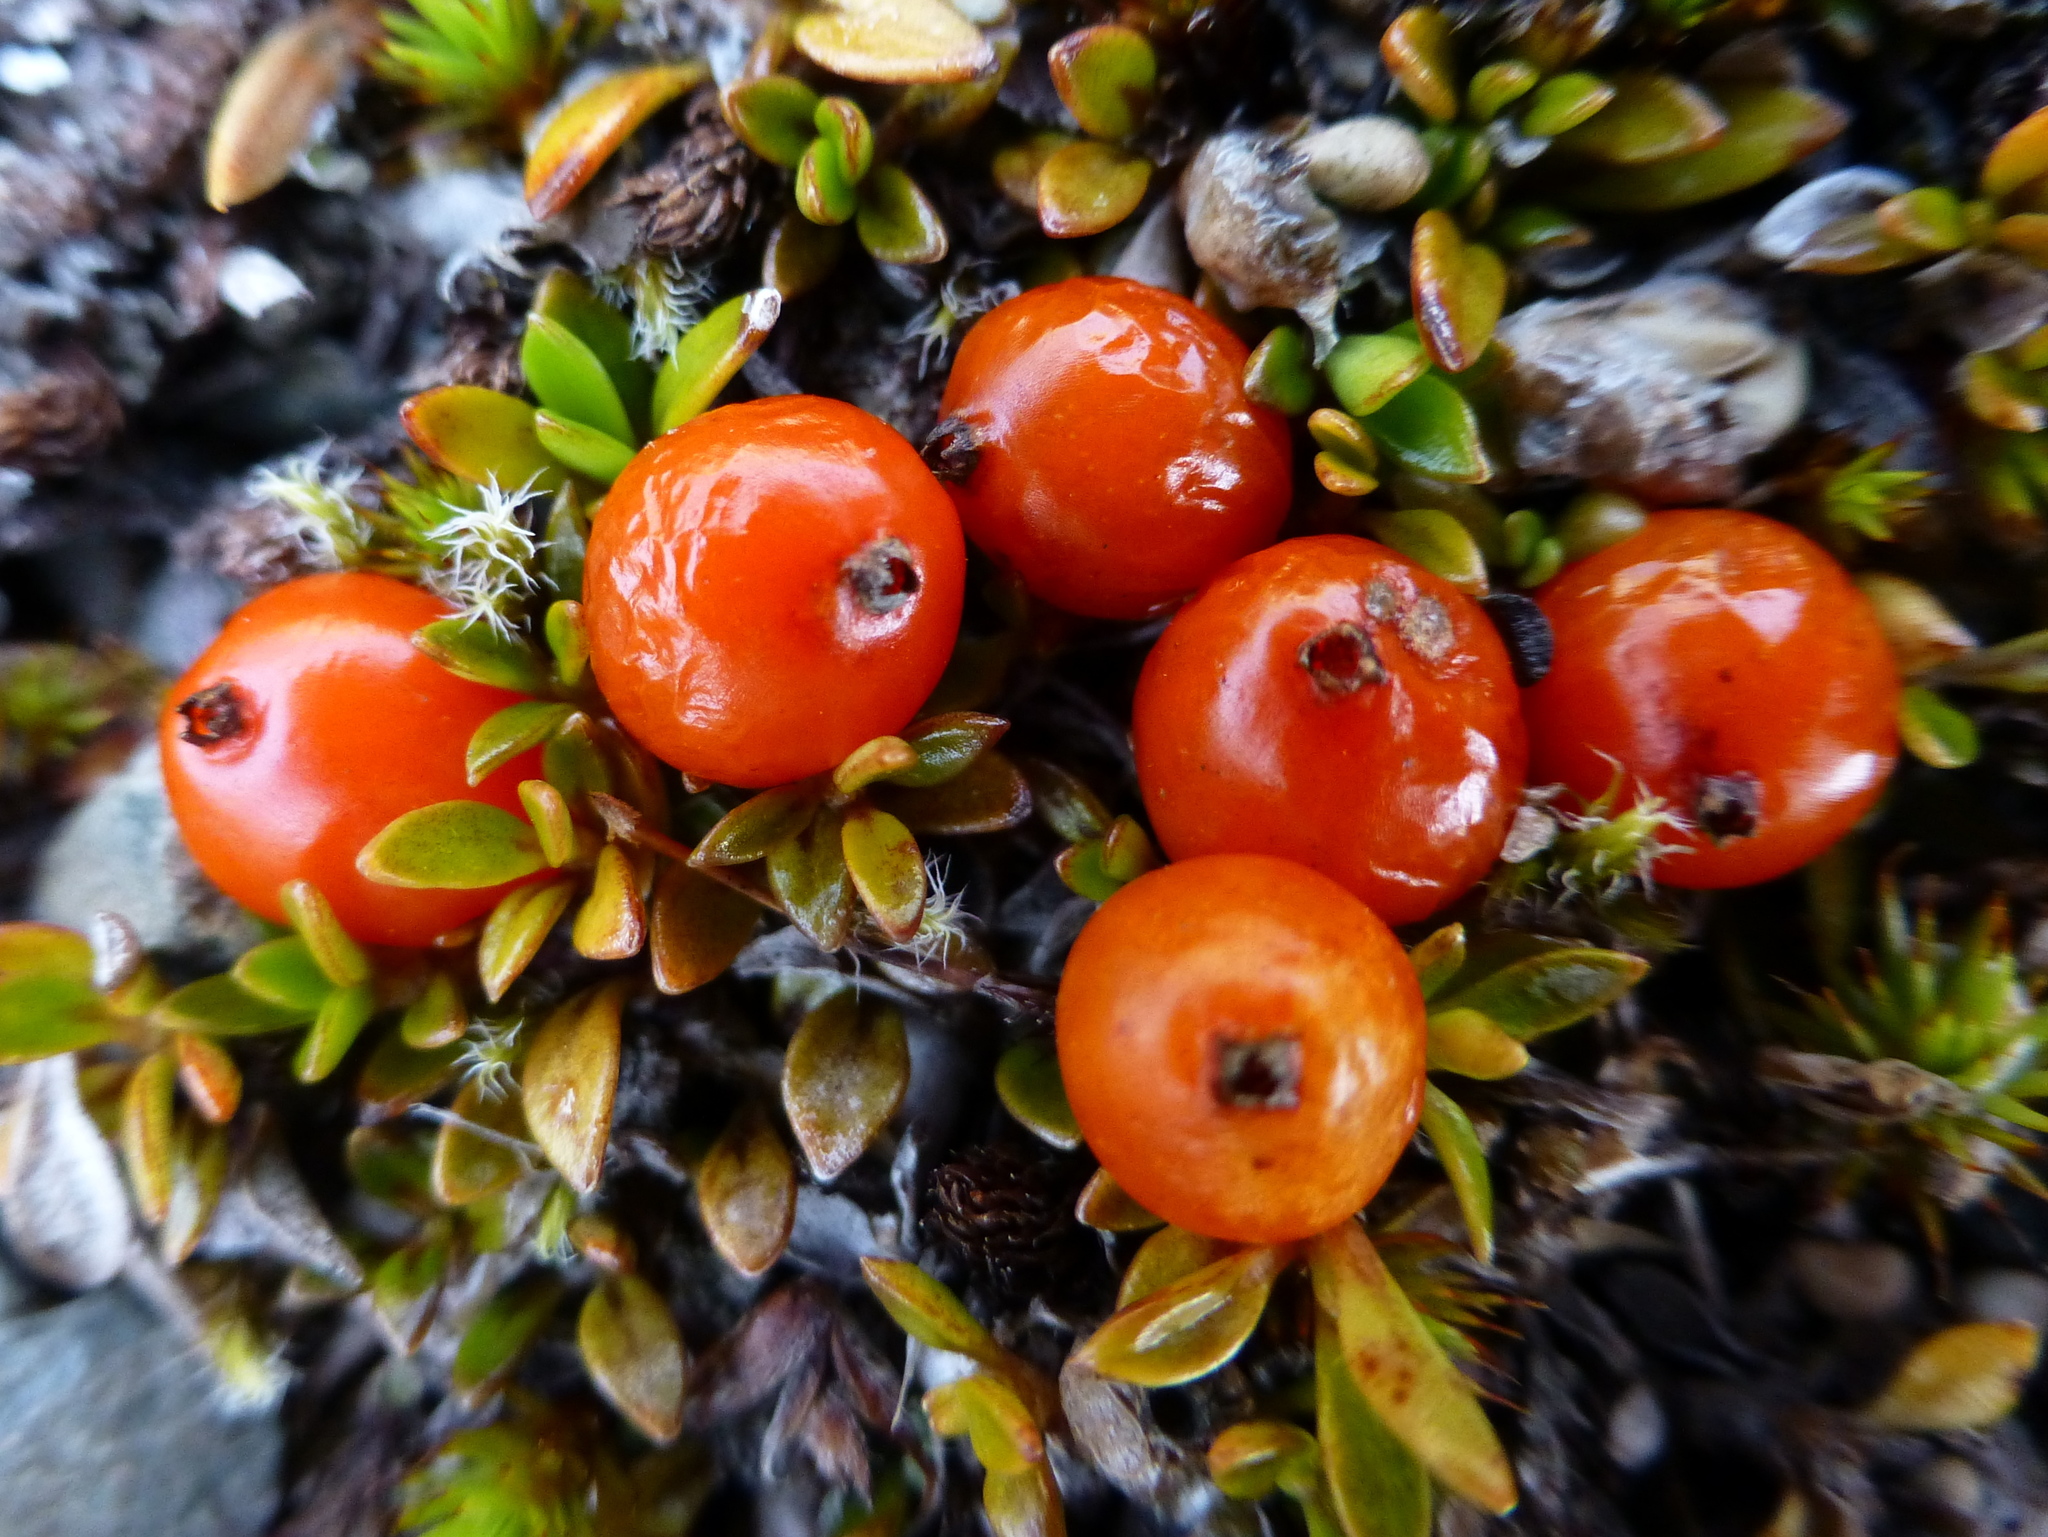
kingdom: Plantae
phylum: Tracheophyta
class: Magnoliopsida
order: Gentianales
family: Rubiaceae
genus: Coprosma
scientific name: Coprosma perpusilla
